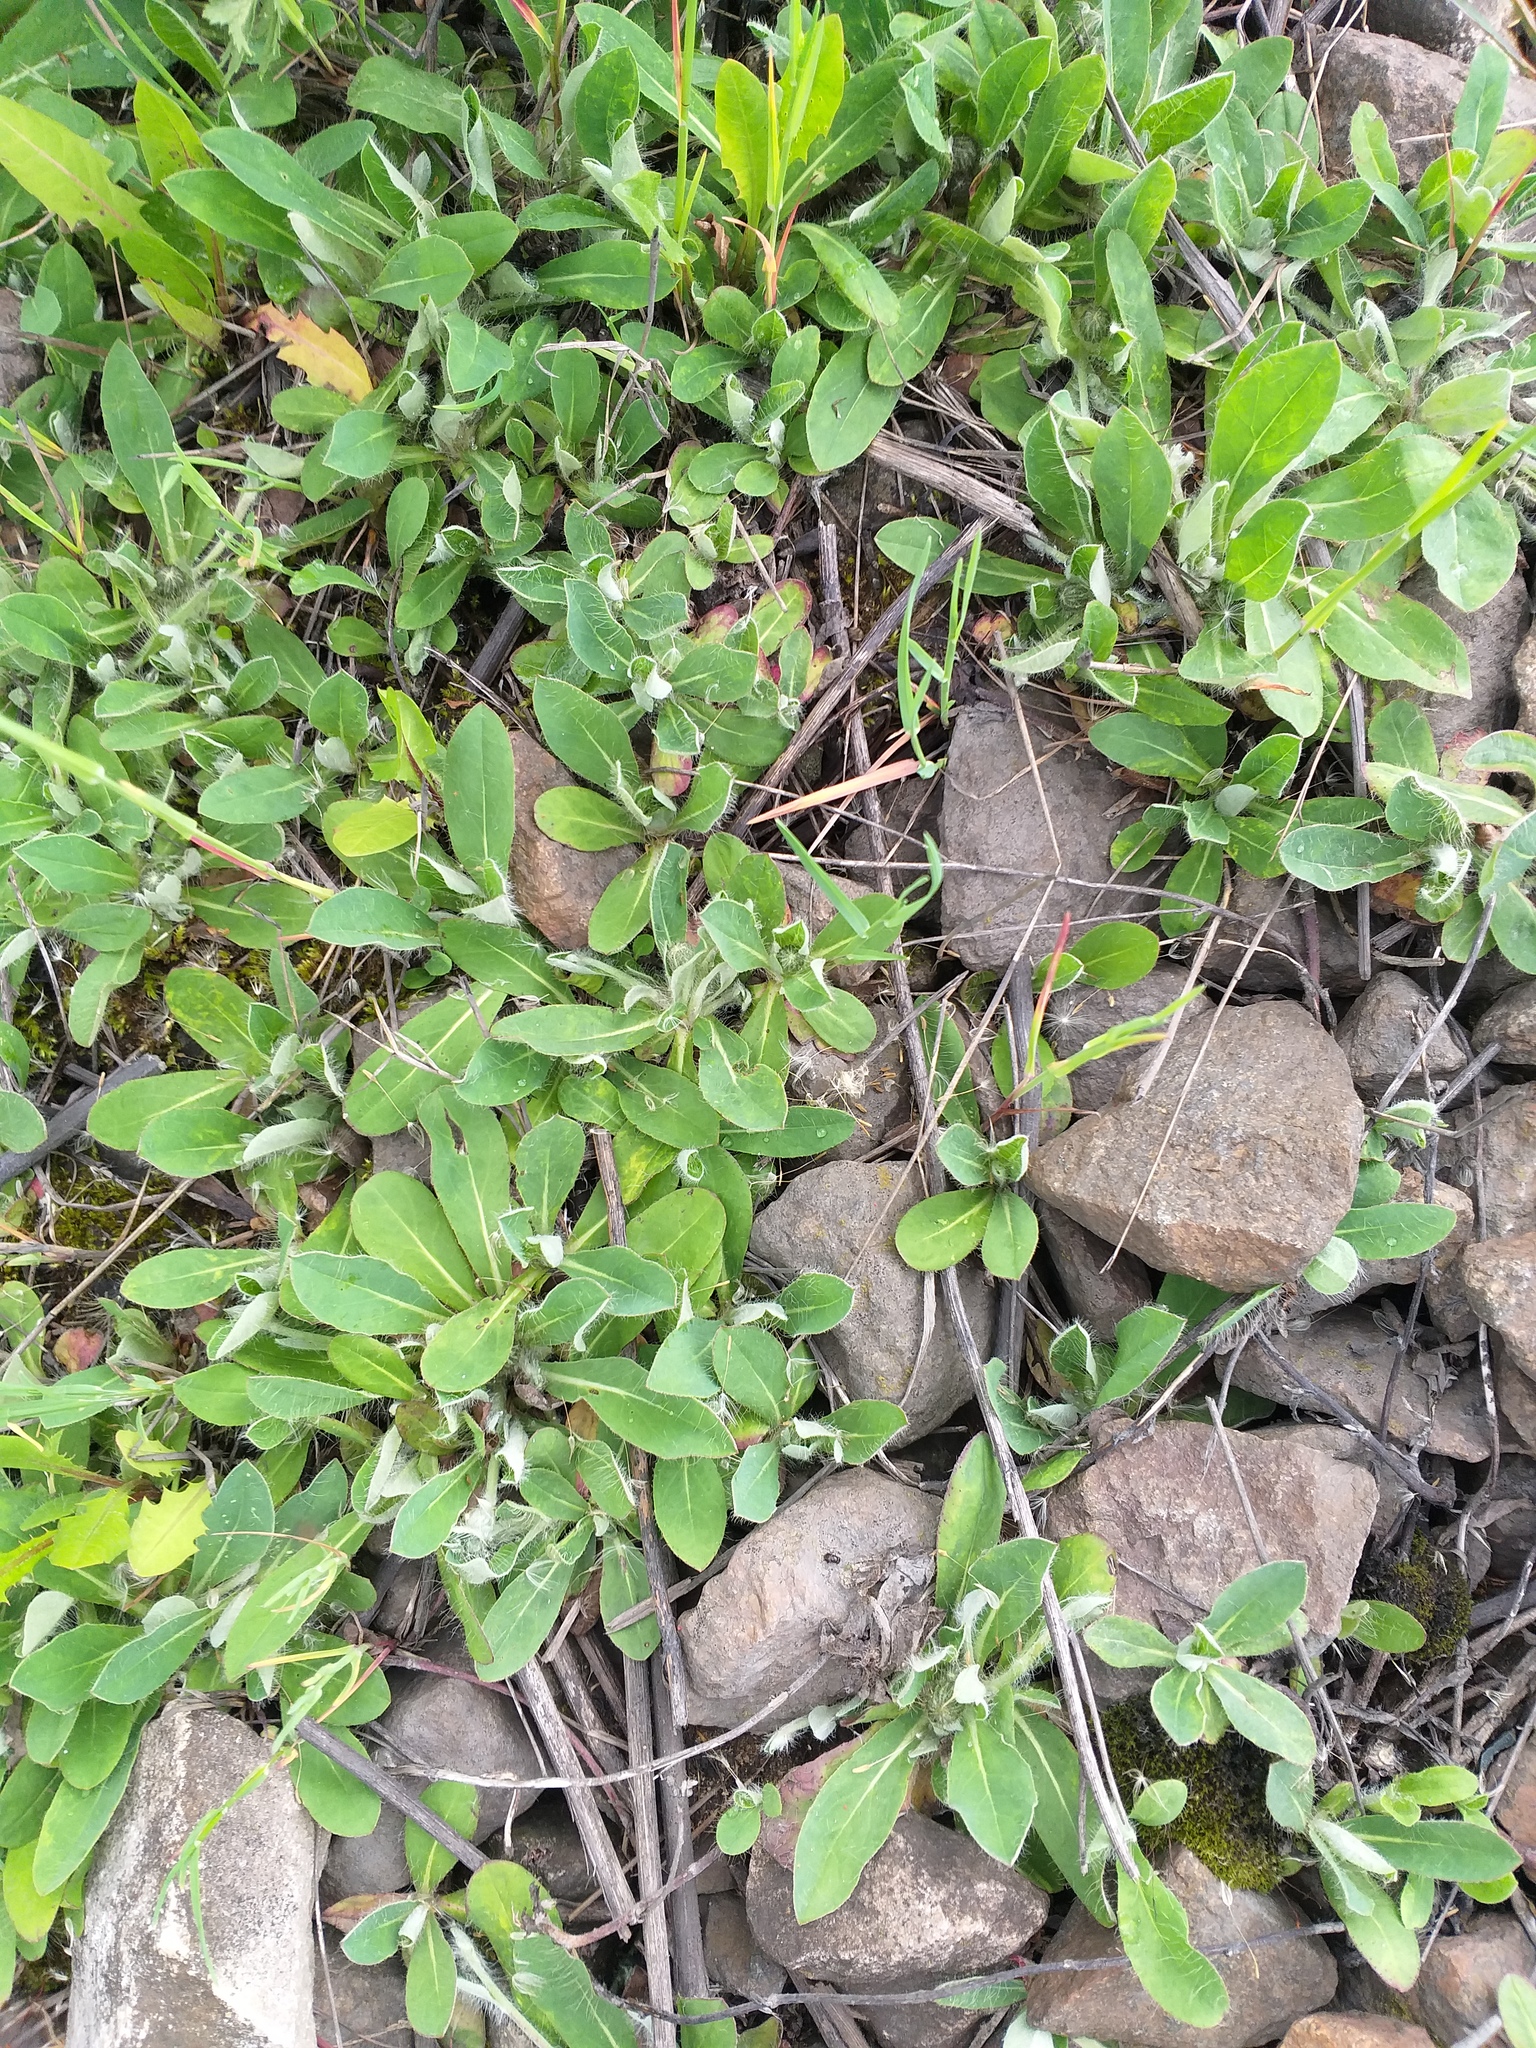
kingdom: Plantae
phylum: Tracheophyta
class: Magnoliopsida
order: Asterales
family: Asteraceae
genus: Pilosella
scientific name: Pilosella officinarum
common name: Mouse-ear hawkweed
